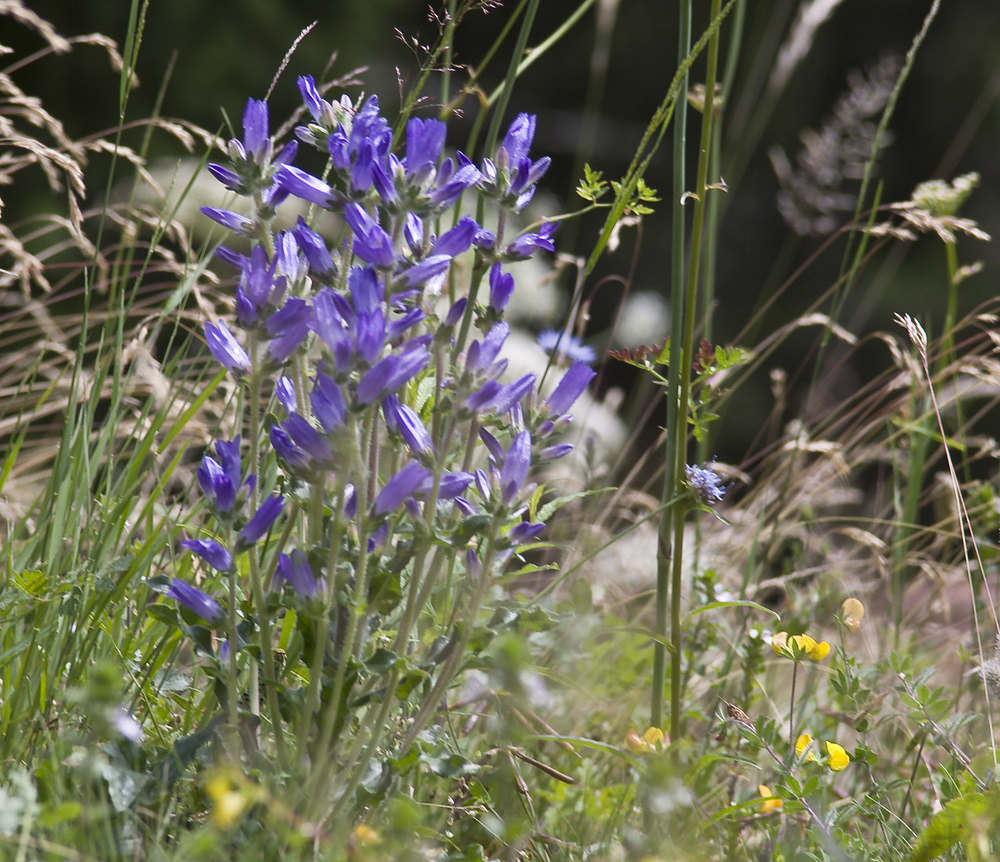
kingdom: Plantae
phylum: Tracheophyta
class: Magnoliopsida
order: Asterales
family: Campanulaceae
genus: Campanula
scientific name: Campanula spicata
